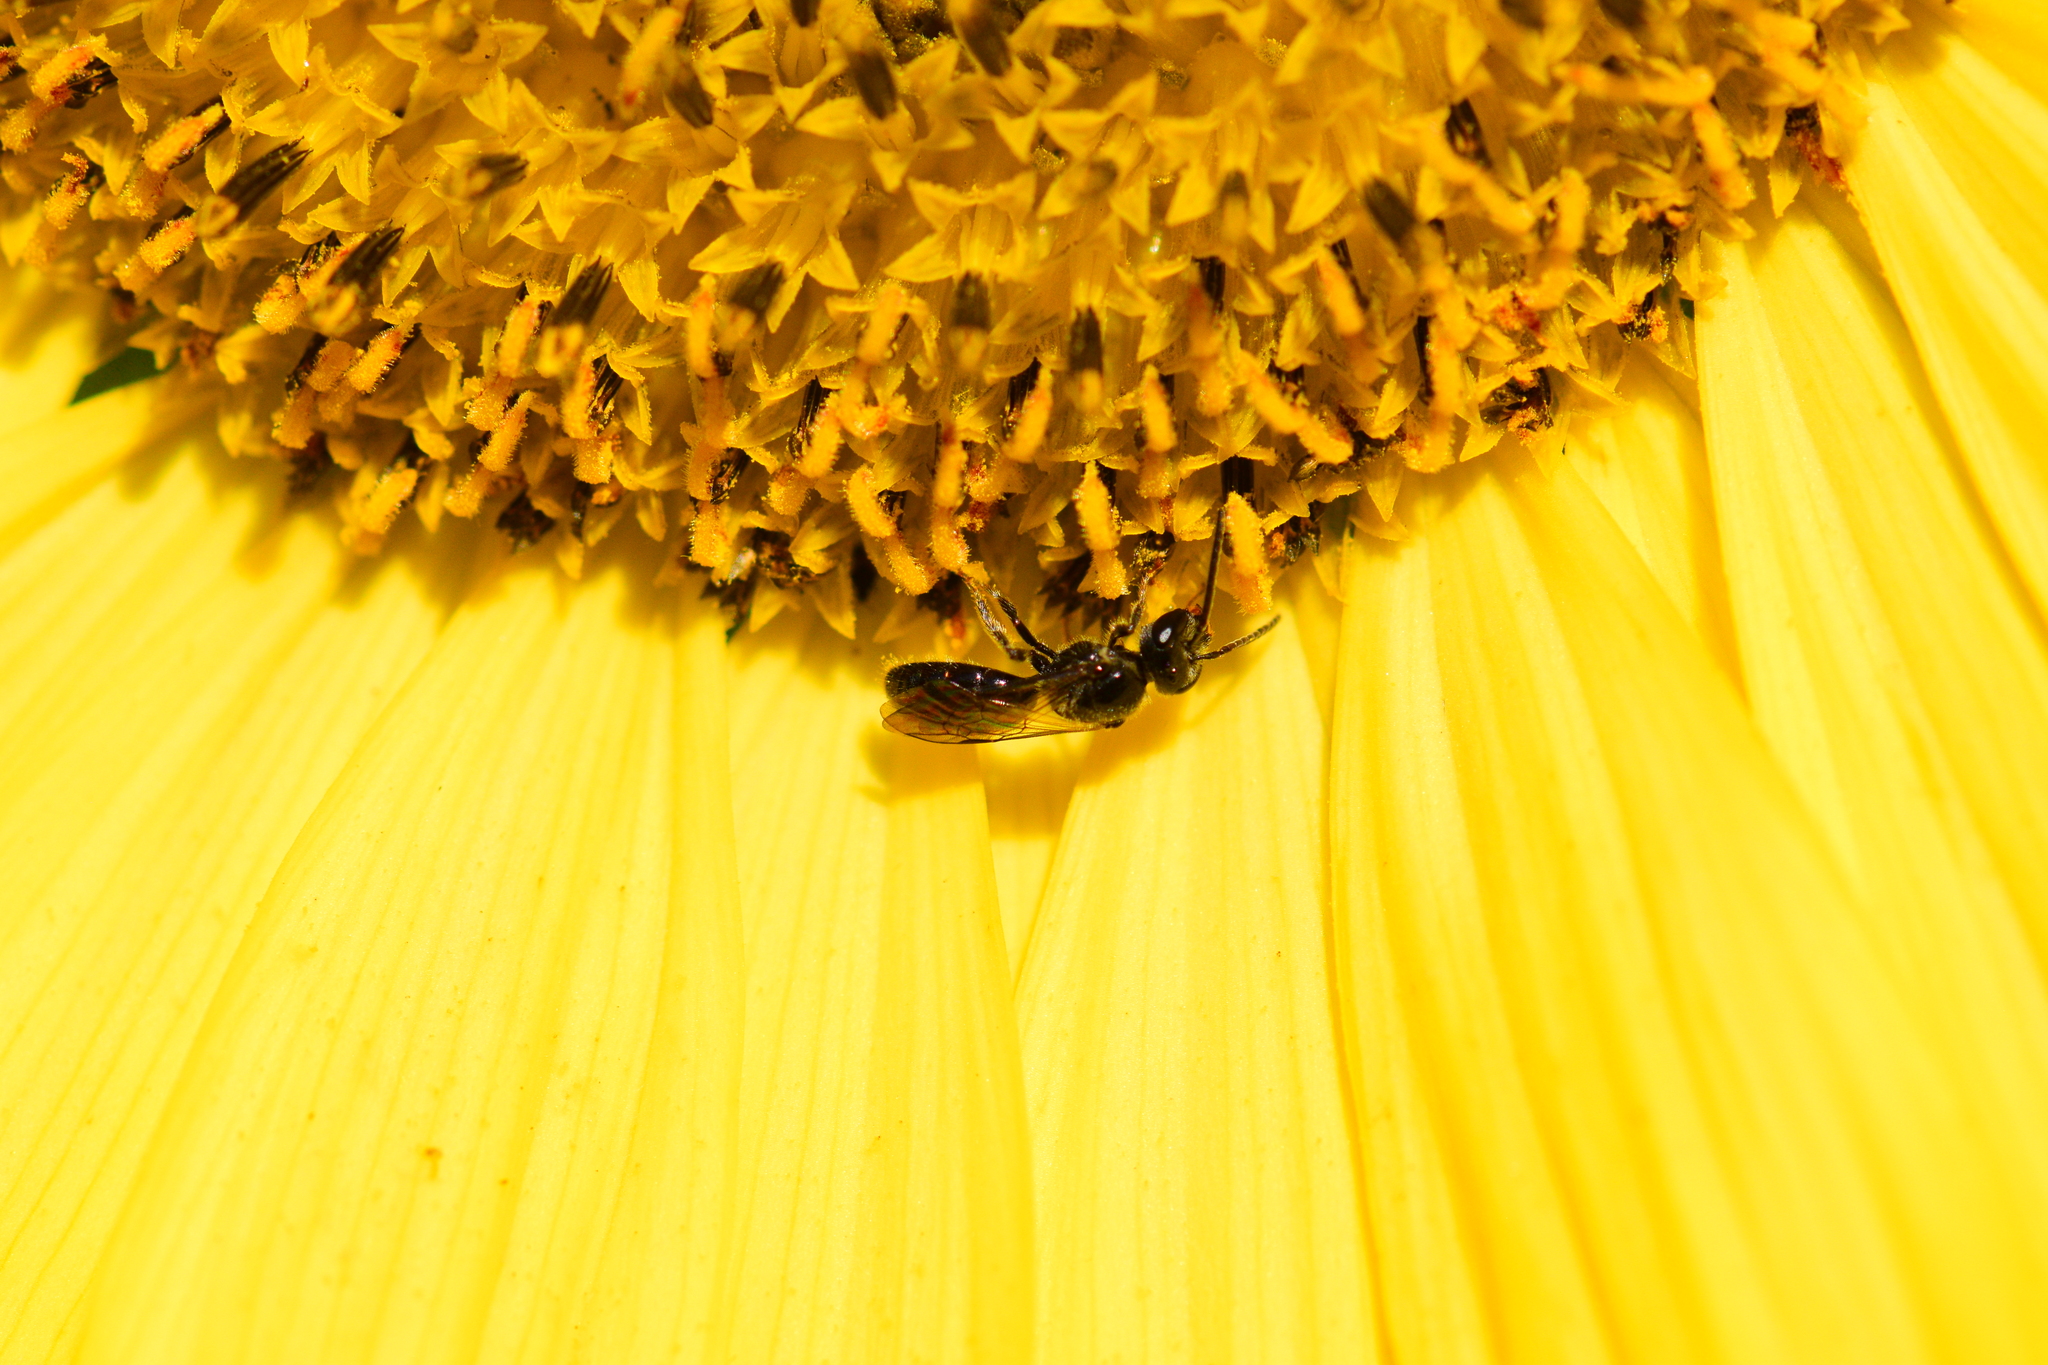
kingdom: Animalia
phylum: Arthropoda
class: Insecta
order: Hymenoptera
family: Halictidae
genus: Lasioglossum
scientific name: Lasioglossum pectinatum
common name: Ground cherry sweat bee
